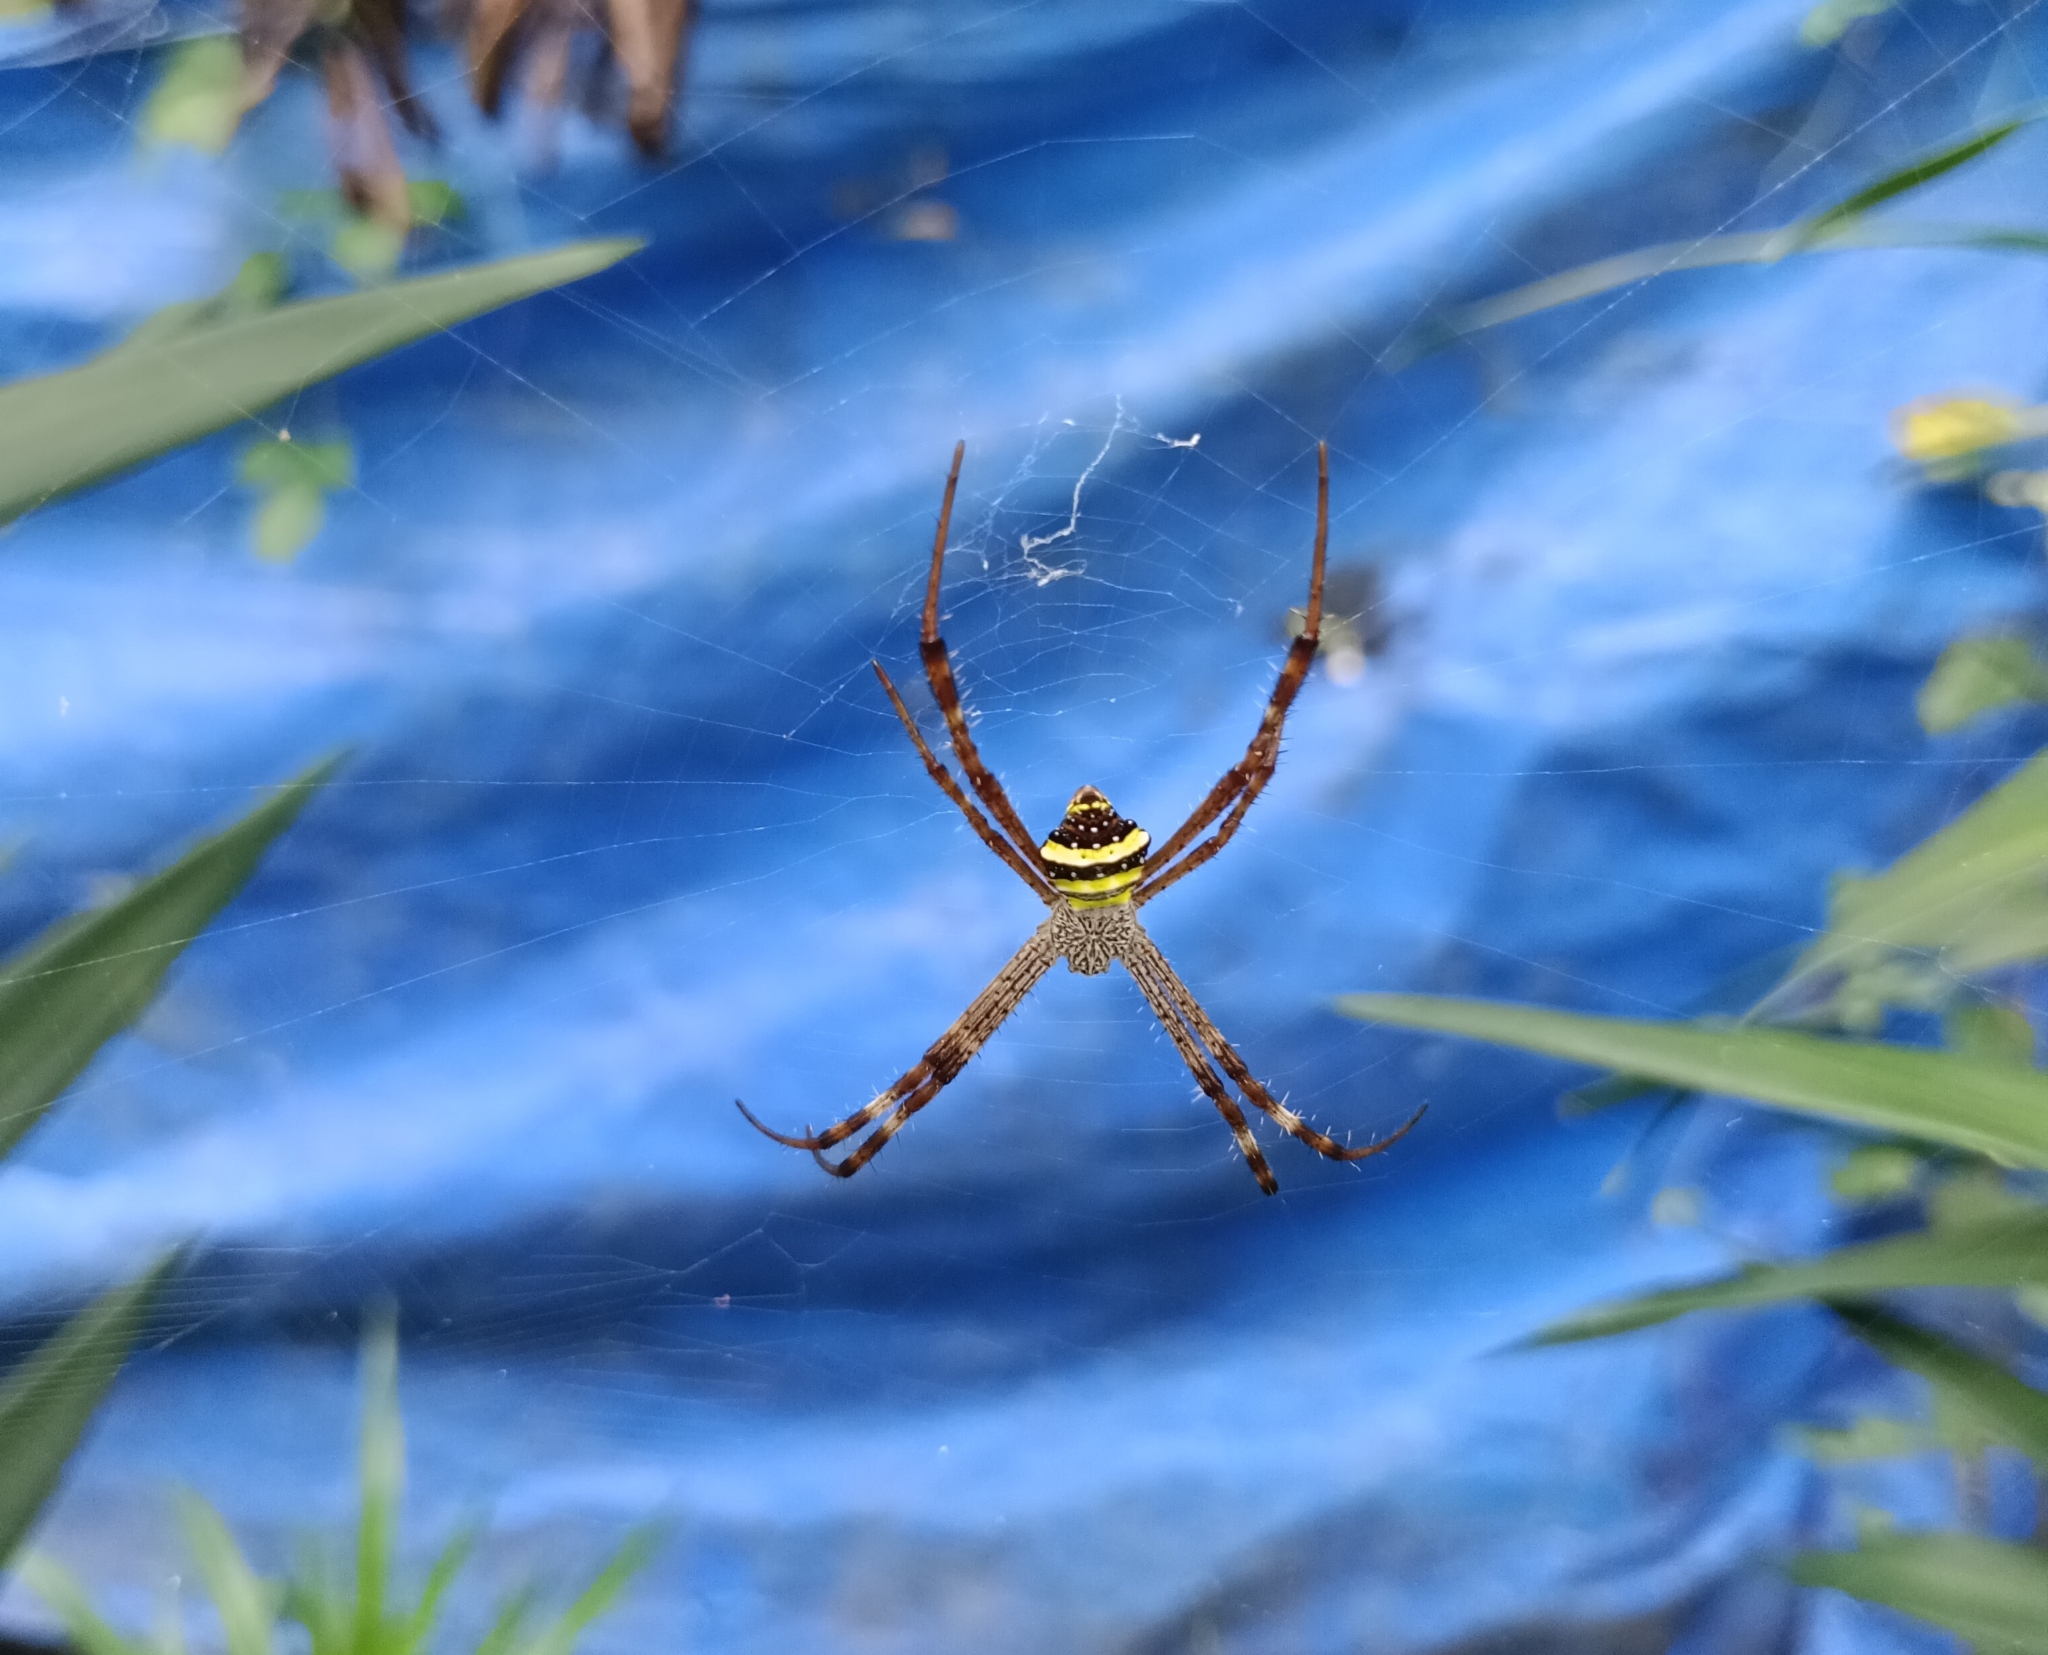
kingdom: Animalia
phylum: Arthropoda
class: Arachnida
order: Araneae
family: Araneidae
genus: Argiope
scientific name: Argiope pulchella
